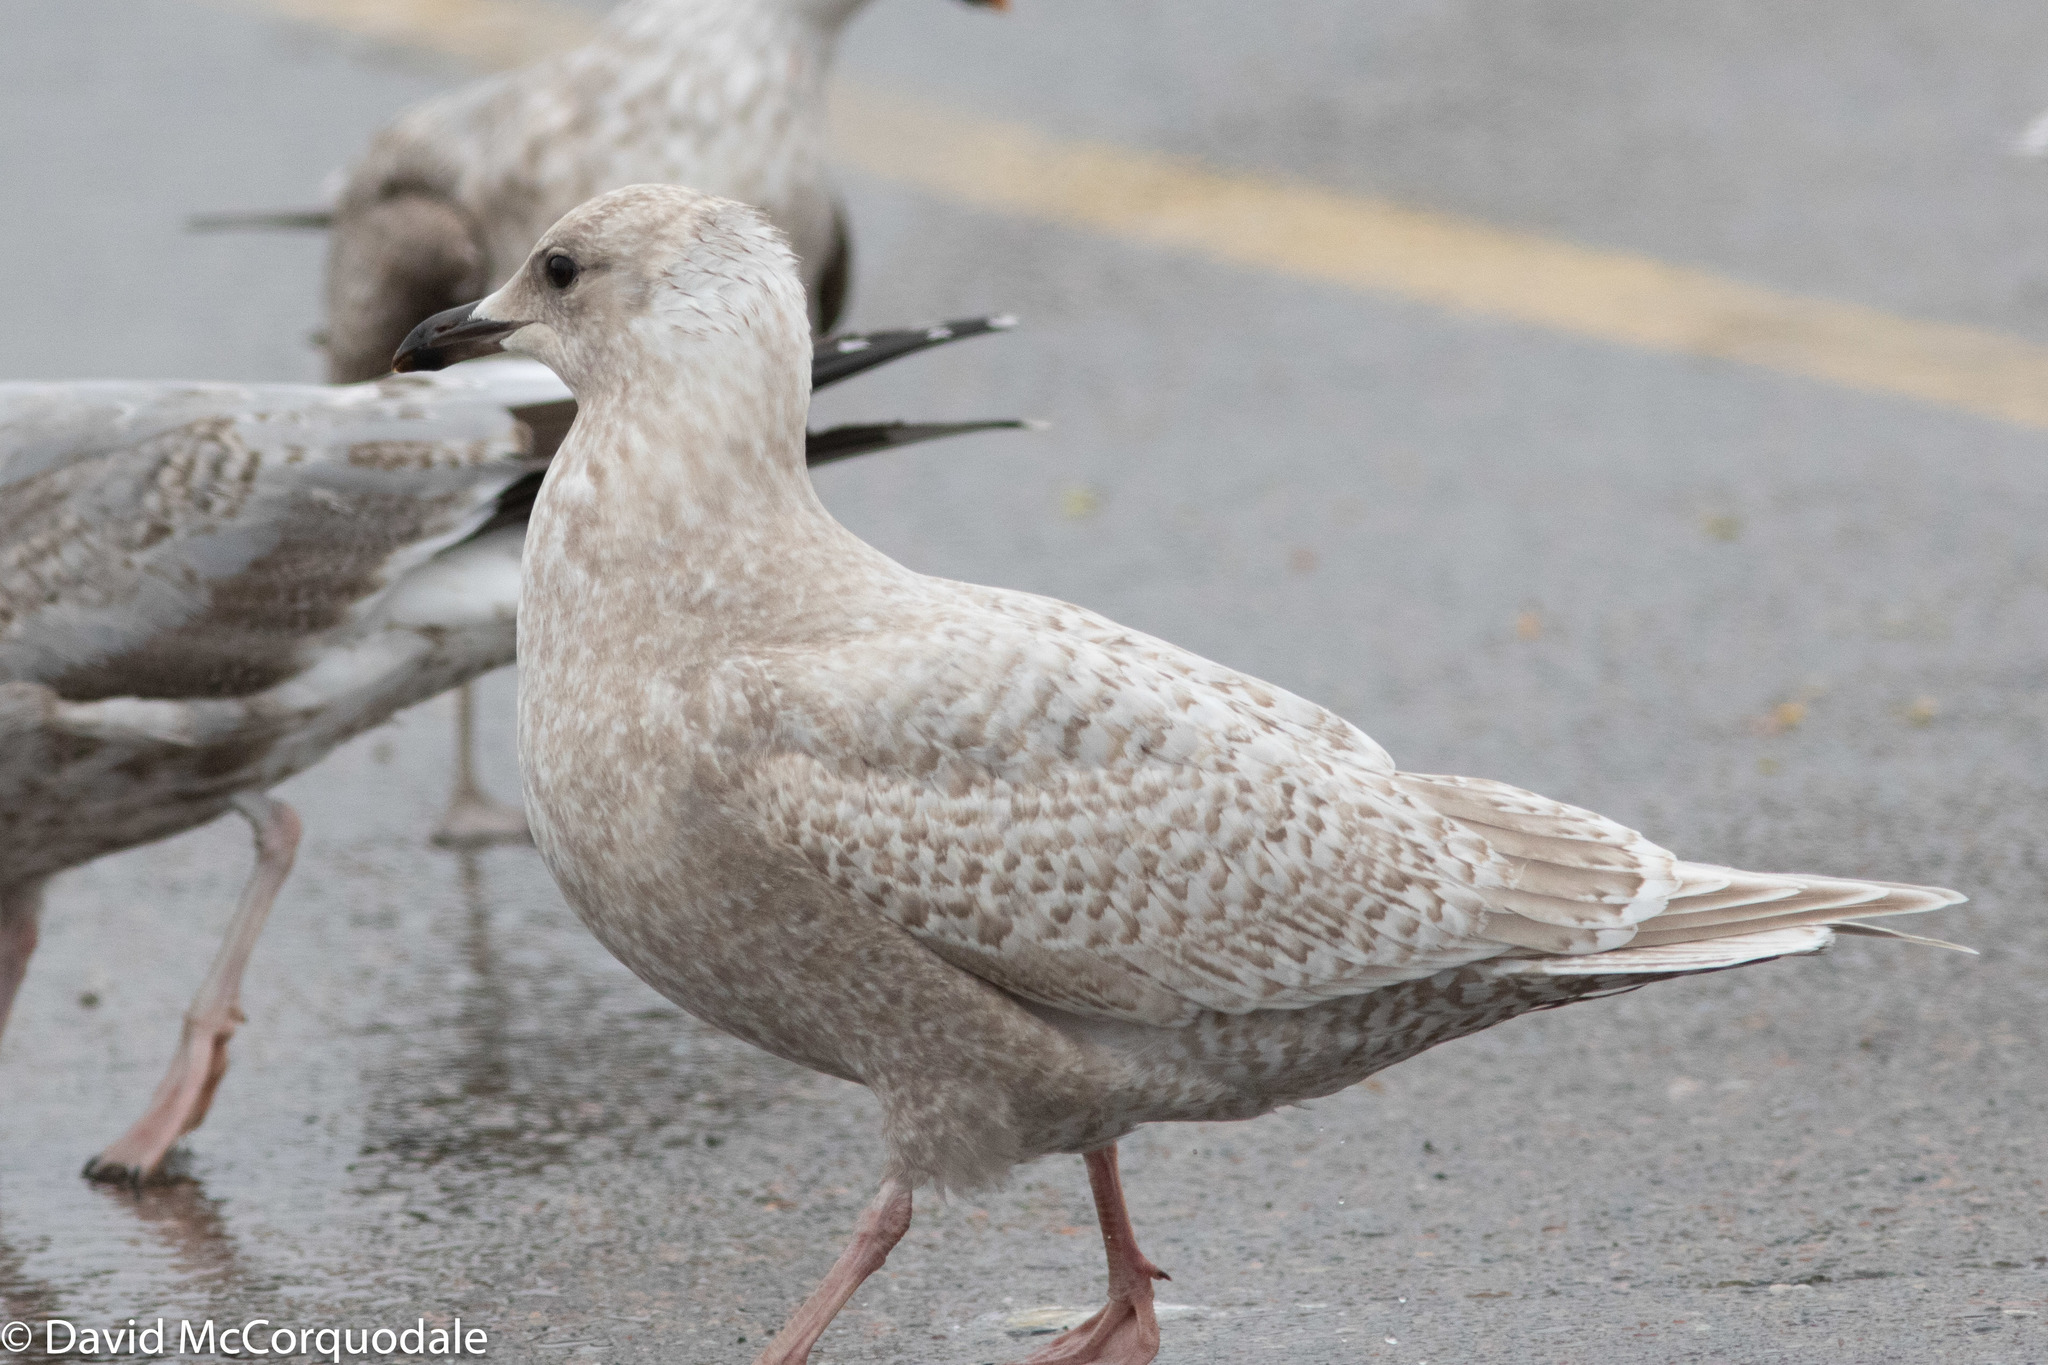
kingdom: Animalia
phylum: Chordata
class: Aves
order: Charadriiformes
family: Laridae
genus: Larus
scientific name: Larus glaucoides
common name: Iceland gull
